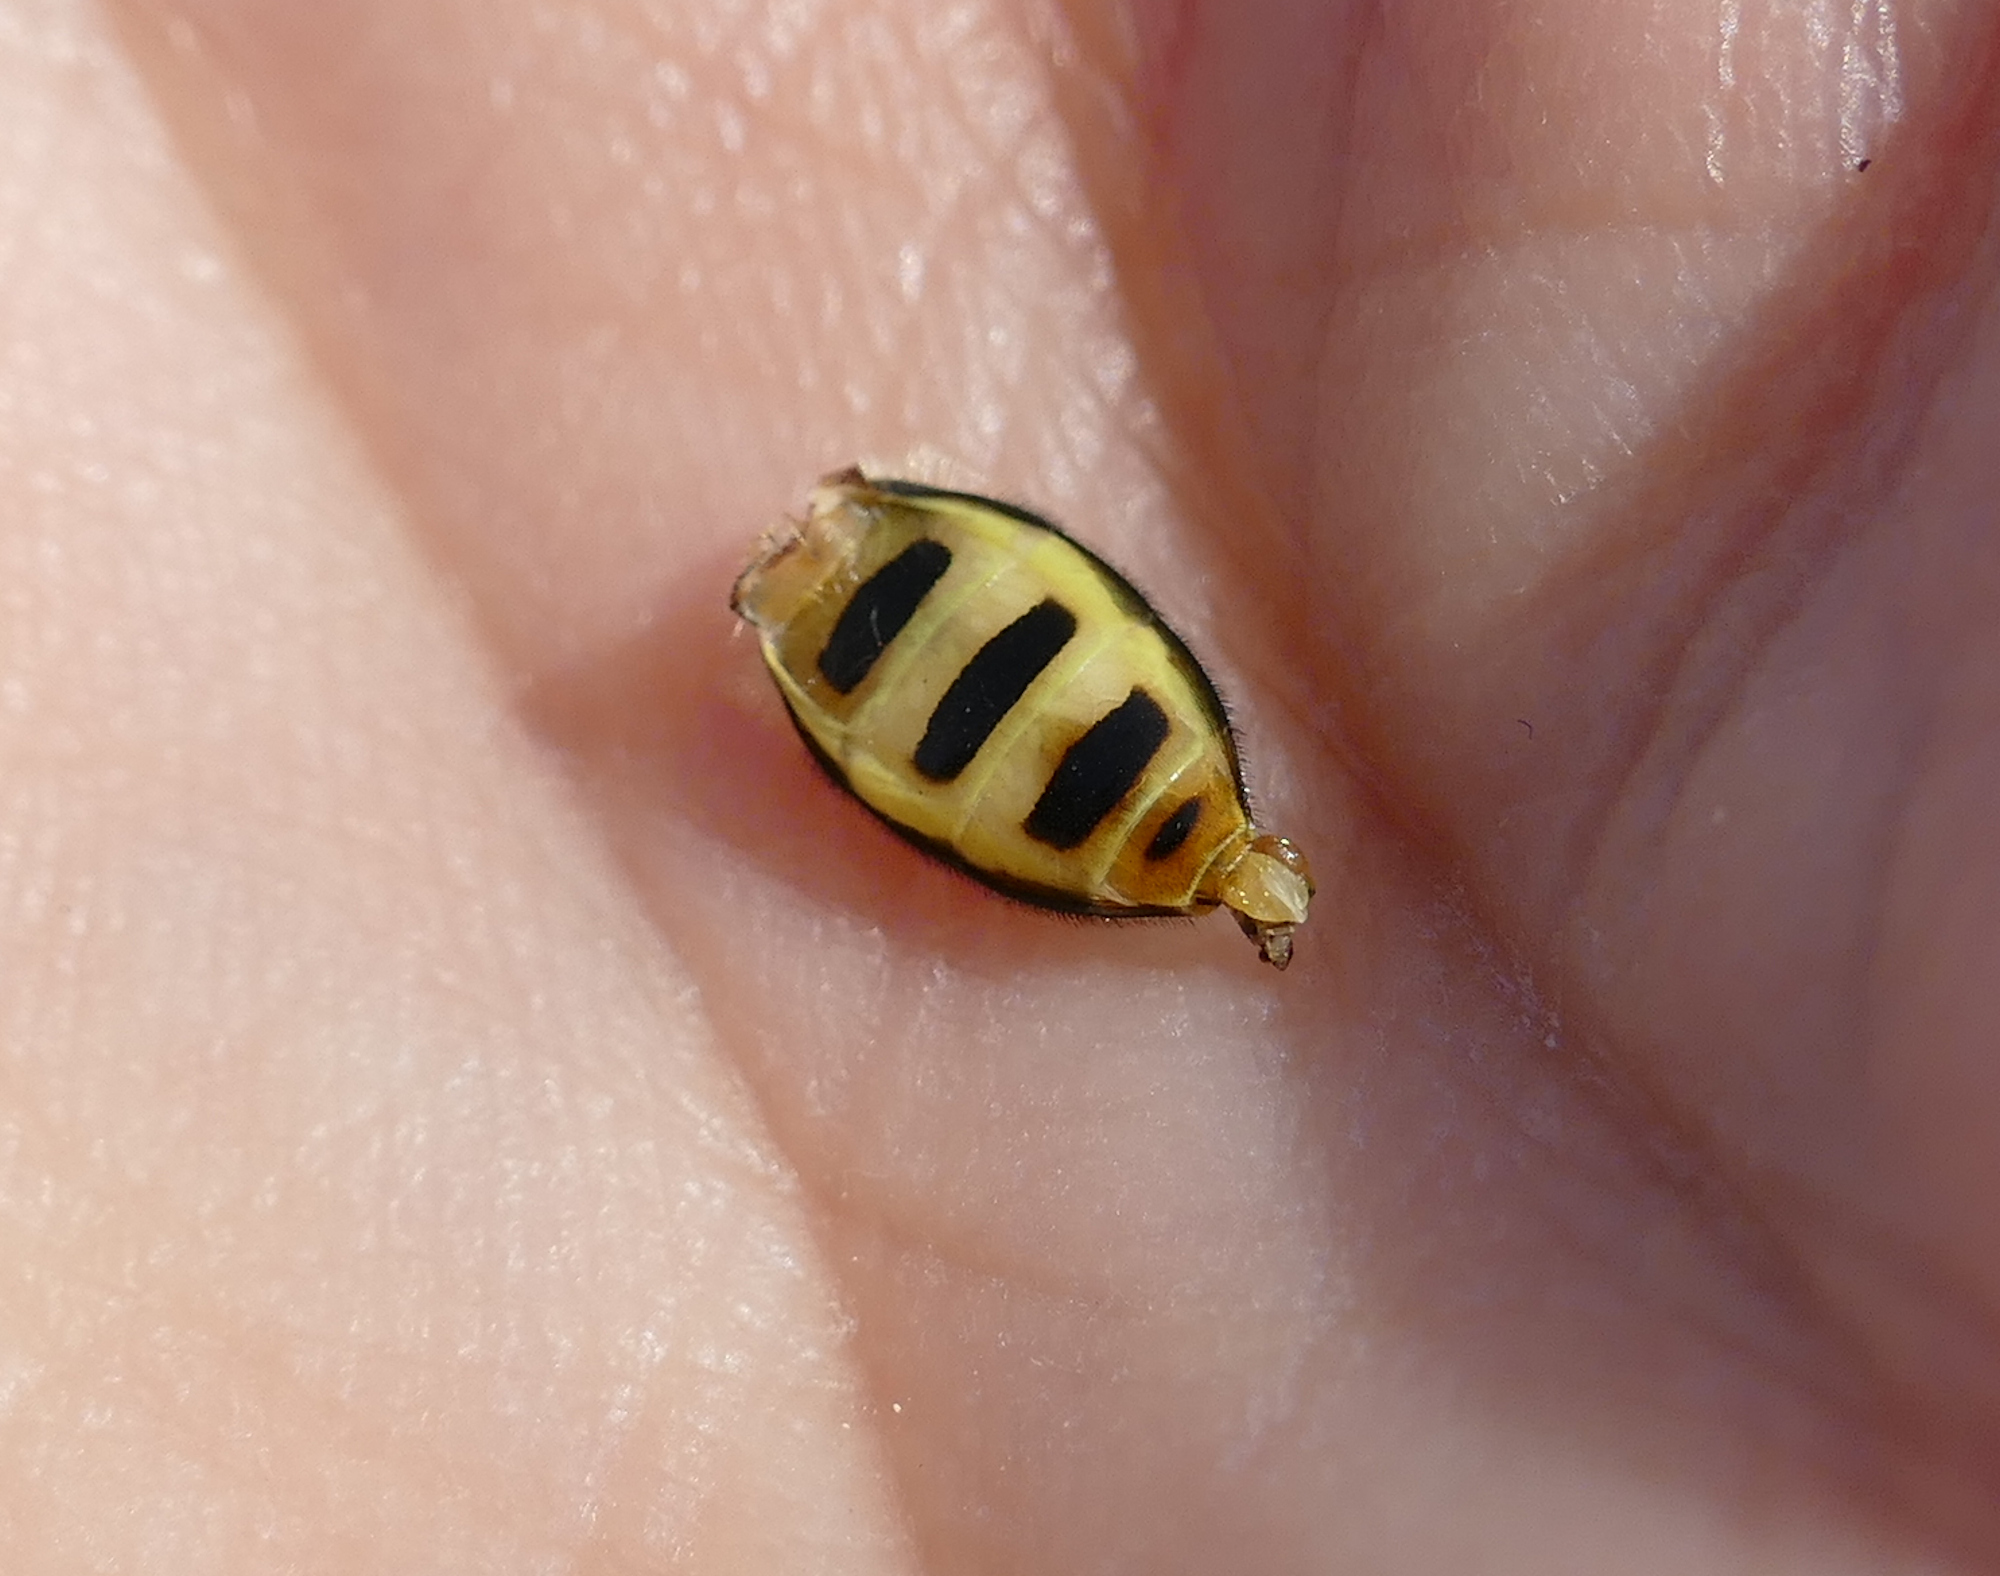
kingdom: Animalia
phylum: Arthropoda
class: Insecta
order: Diptera
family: Syrphidae
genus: Eupeodes
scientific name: Eupeodes
